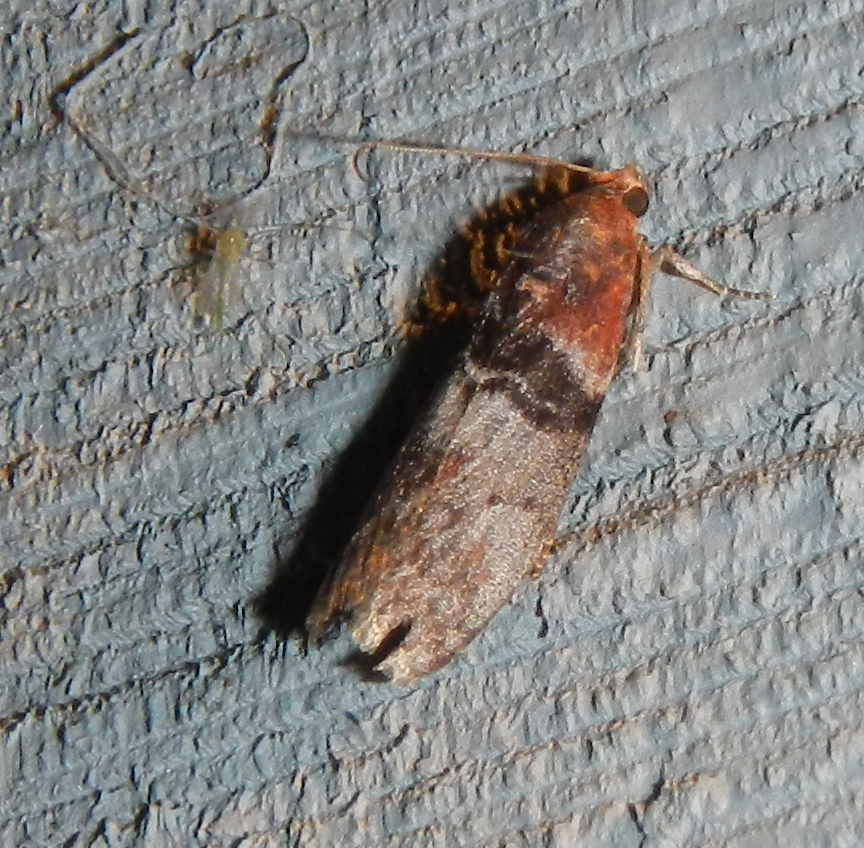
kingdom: Animalia
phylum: Arthropoda
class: Insecta
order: Lepidoptera
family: Pyralidae
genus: Sciota
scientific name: Sciota vetustella
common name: Belted leafroller moth
